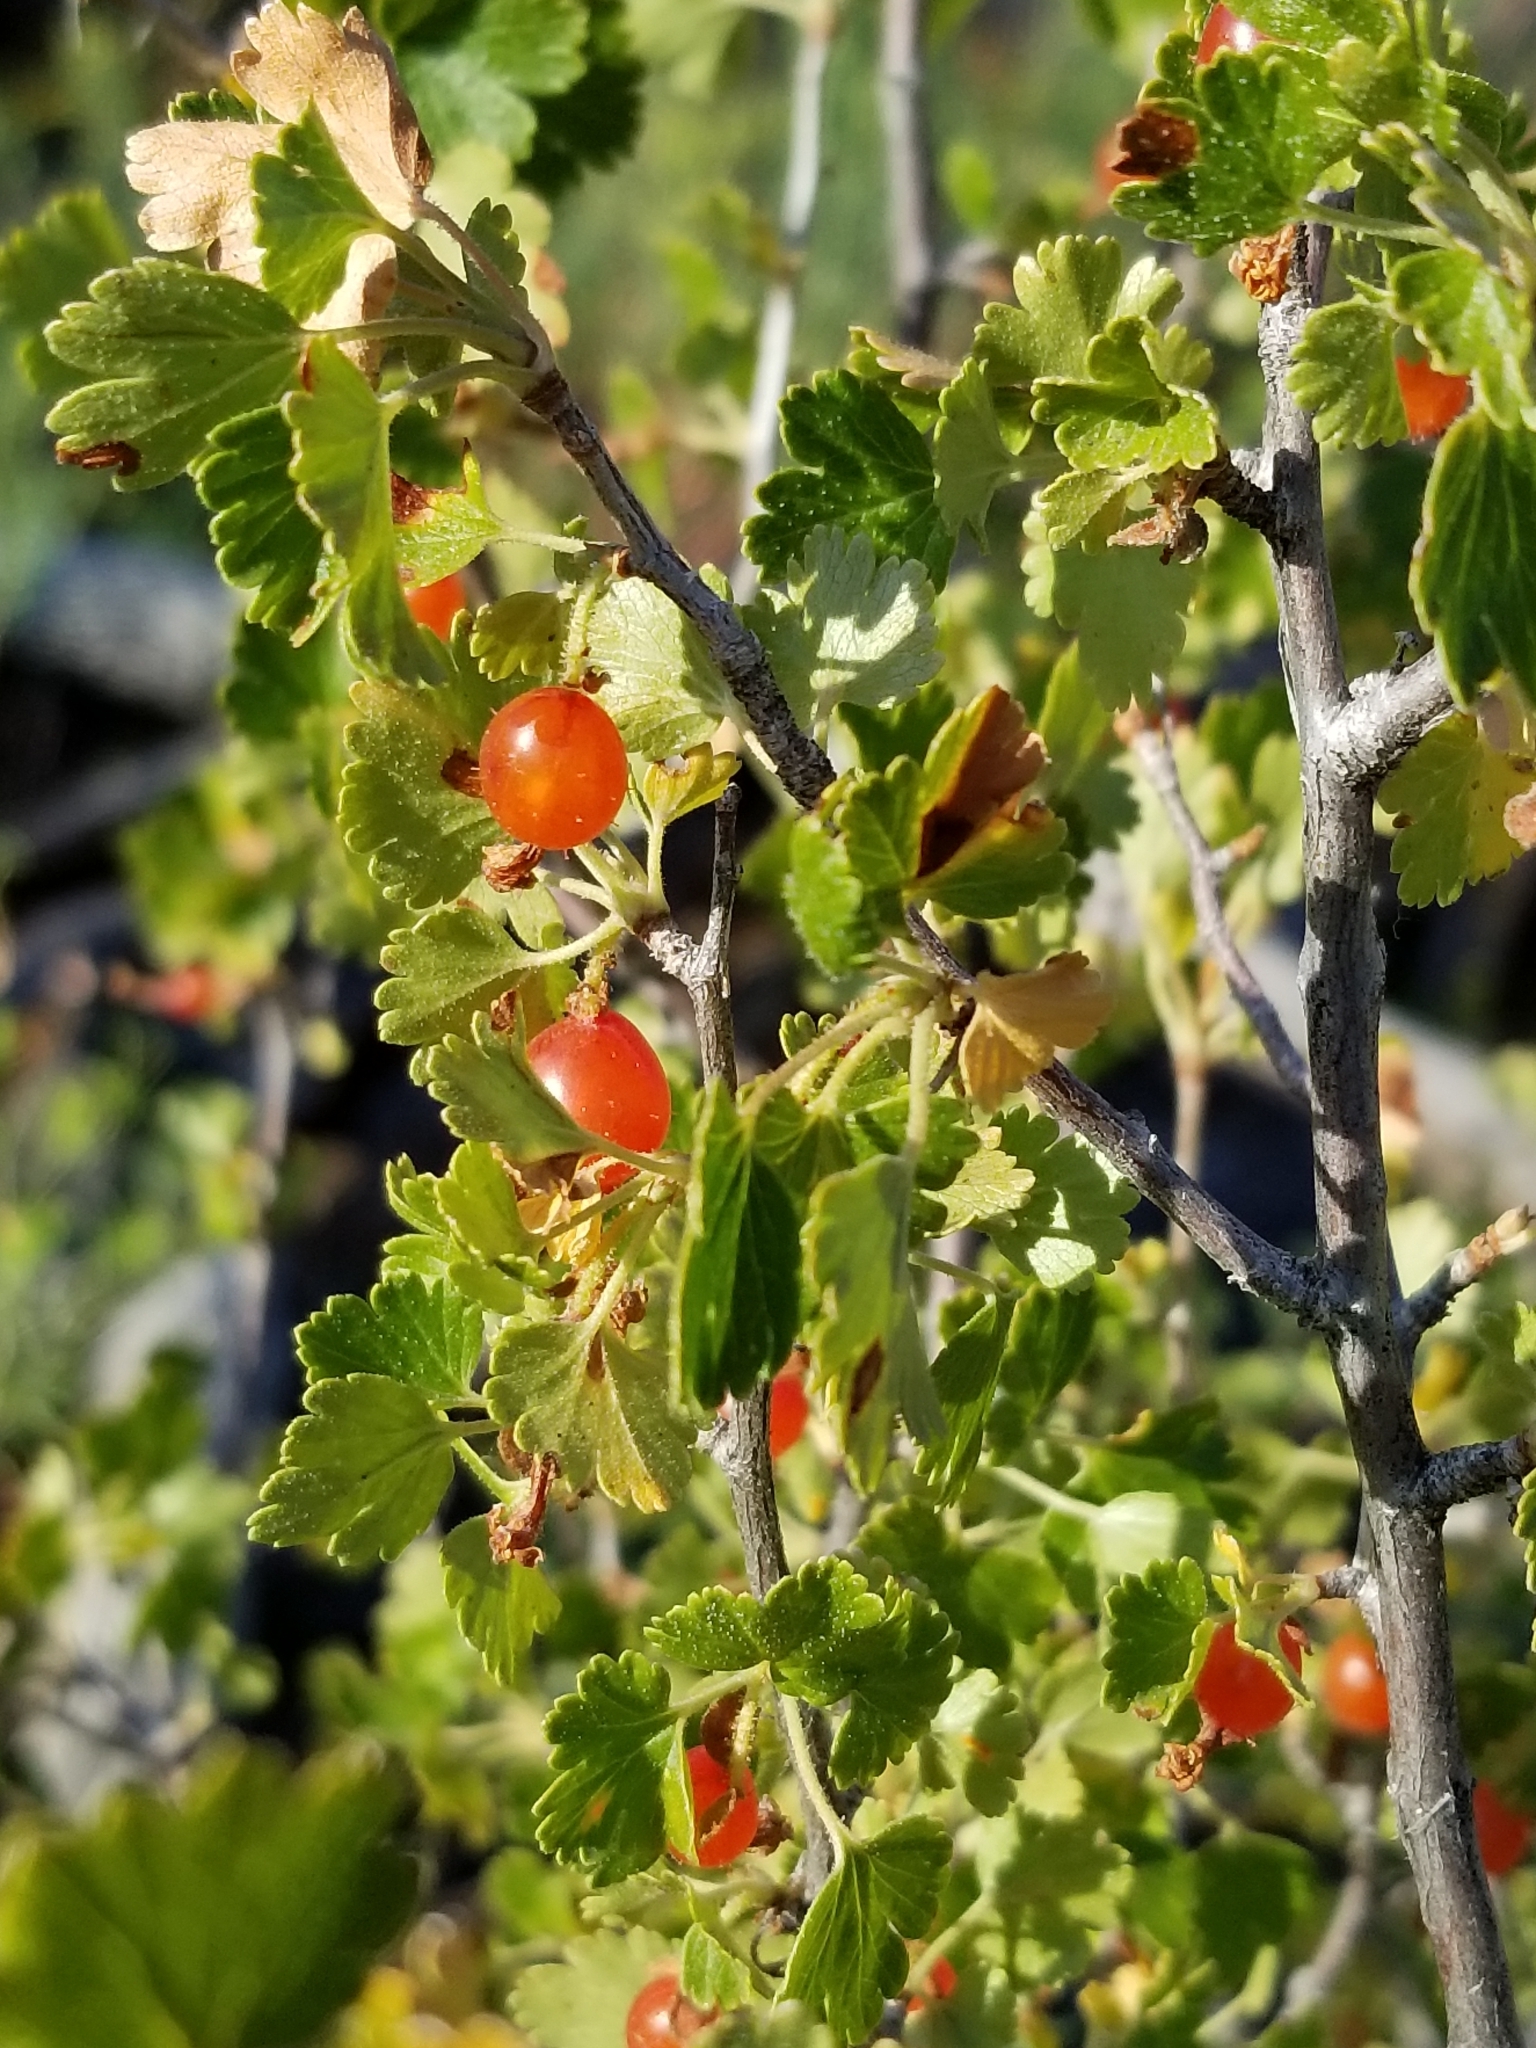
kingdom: Plantae
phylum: Tracheophyta
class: Magnoliopsida
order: Saxifragales
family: Grossulariaceae
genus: Ribes
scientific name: Ribes cereum
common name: Wax currant
